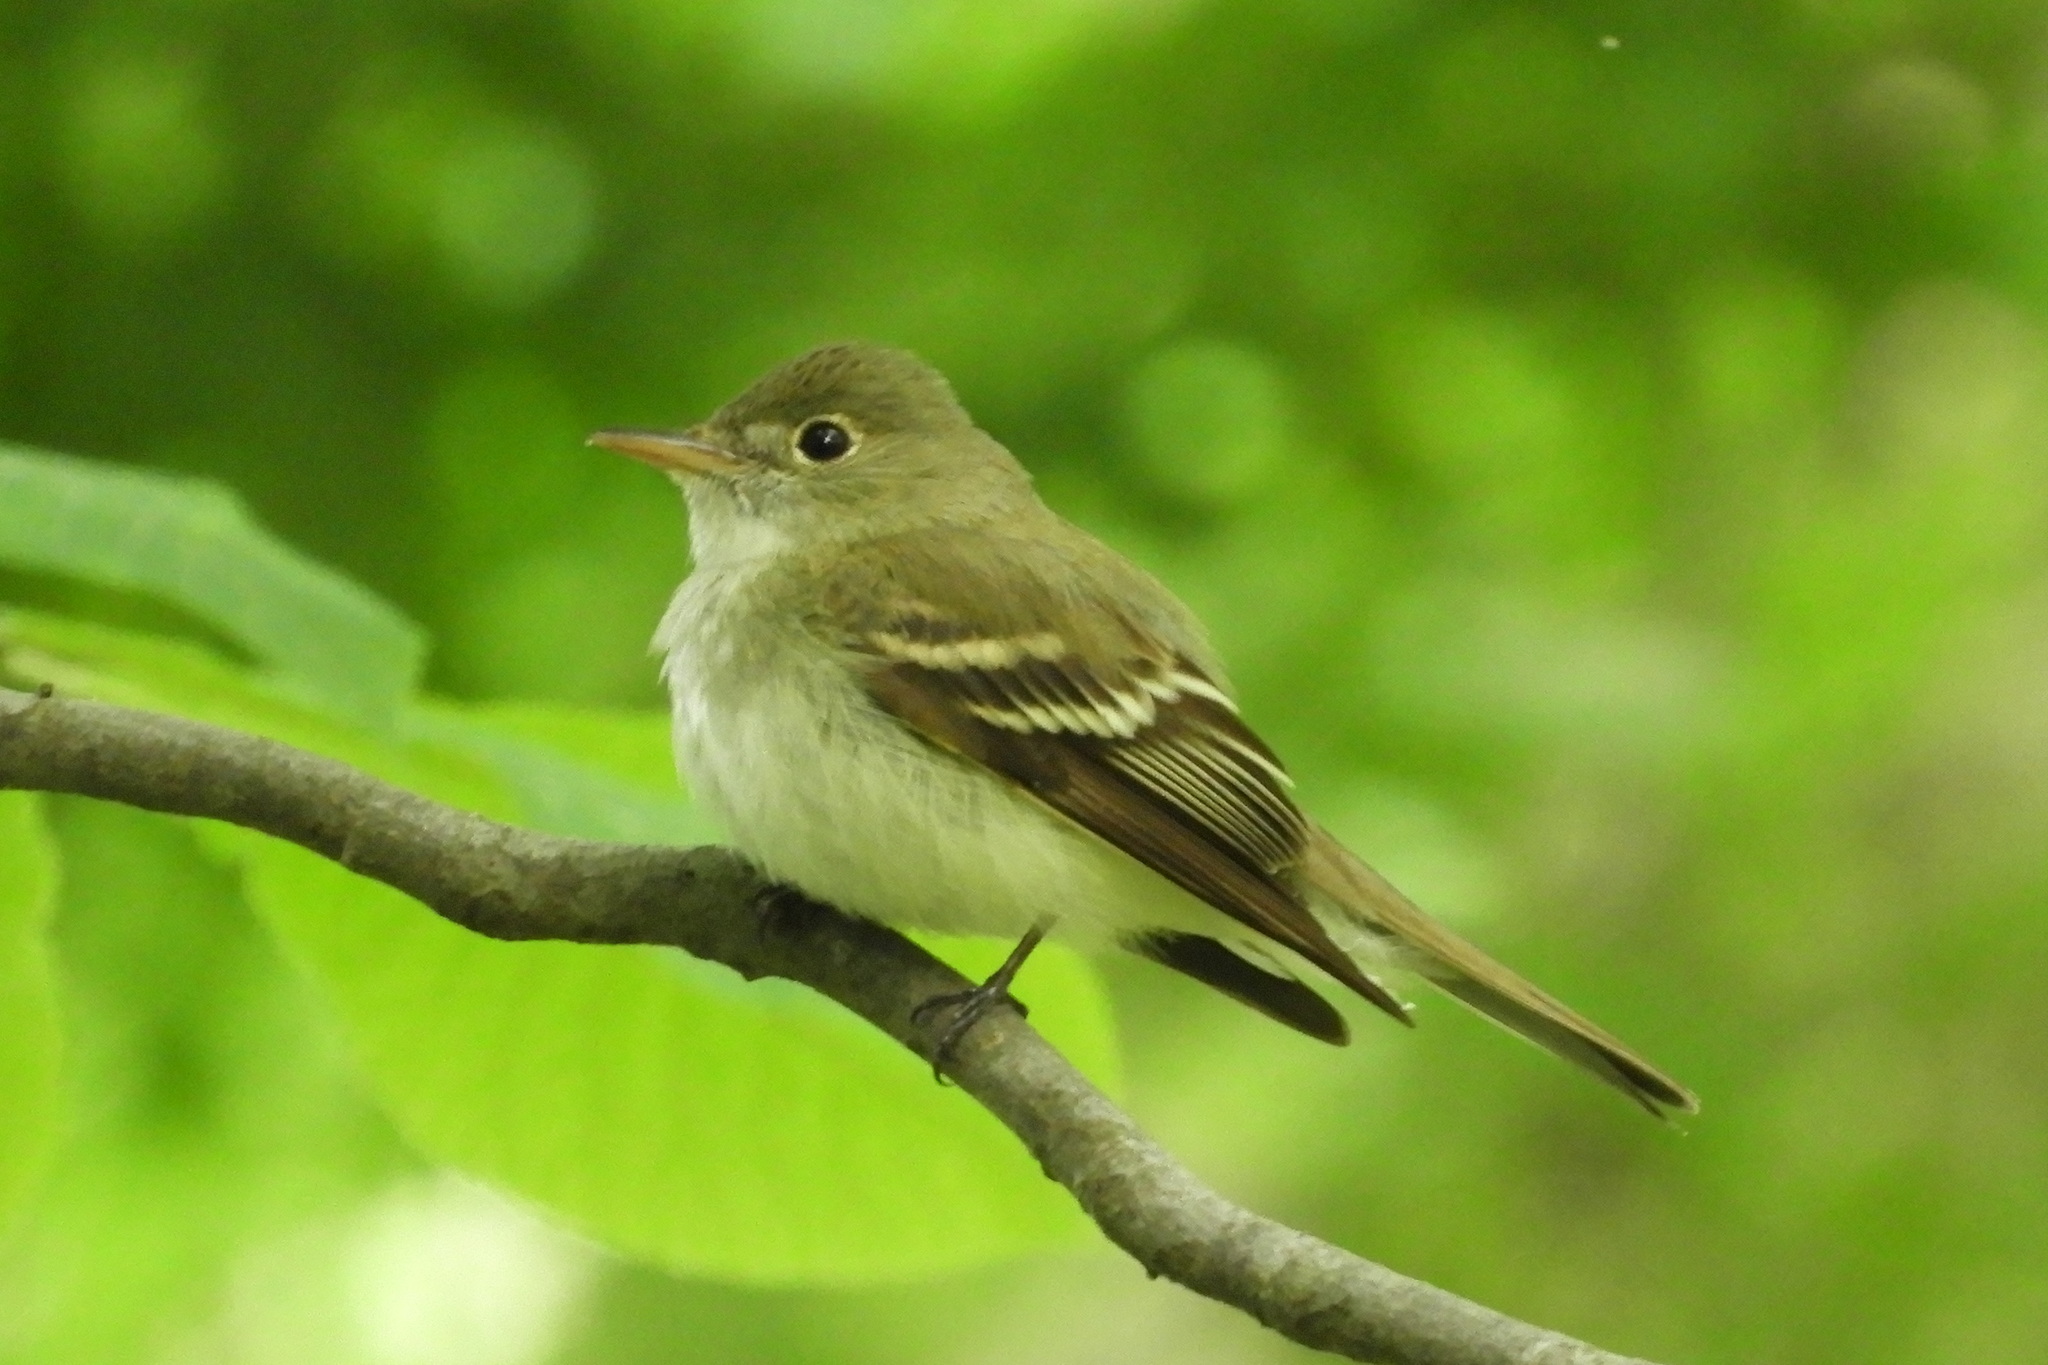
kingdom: Animalia
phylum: Chordata
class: Aves
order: Passeriformes
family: Tyrannidae
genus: Empidonax
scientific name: Empidonax virescens
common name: Acadian flycatcher
